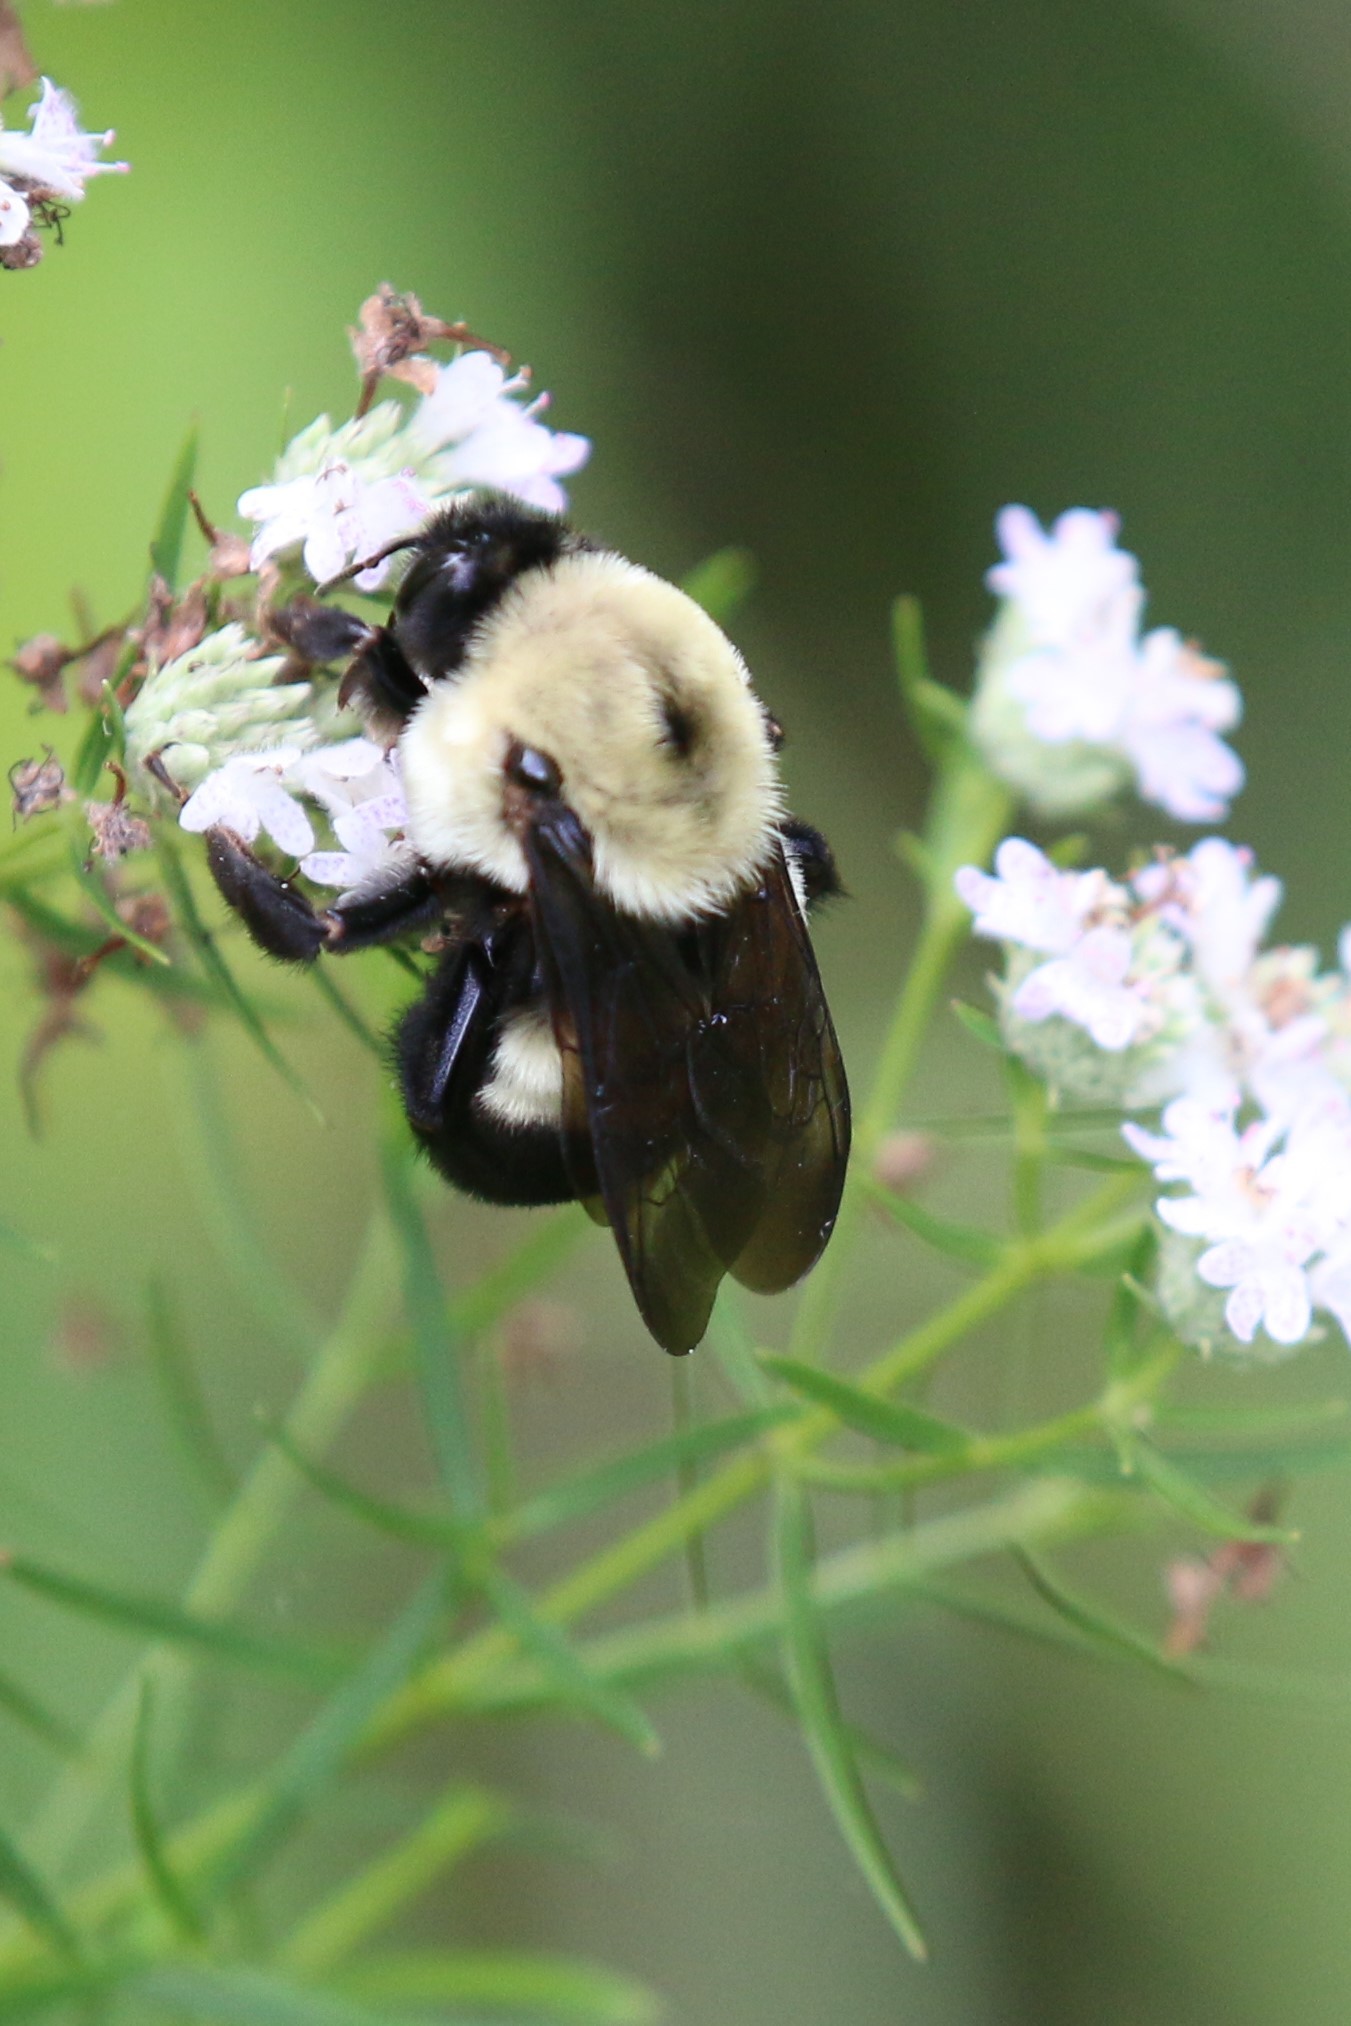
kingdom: Animalia
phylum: Arthropoda
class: Insecta
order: Hymenoptera
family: Apidae
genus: Bombus
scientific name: Bombus griseocollis
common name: Brown-belted bumble bee
